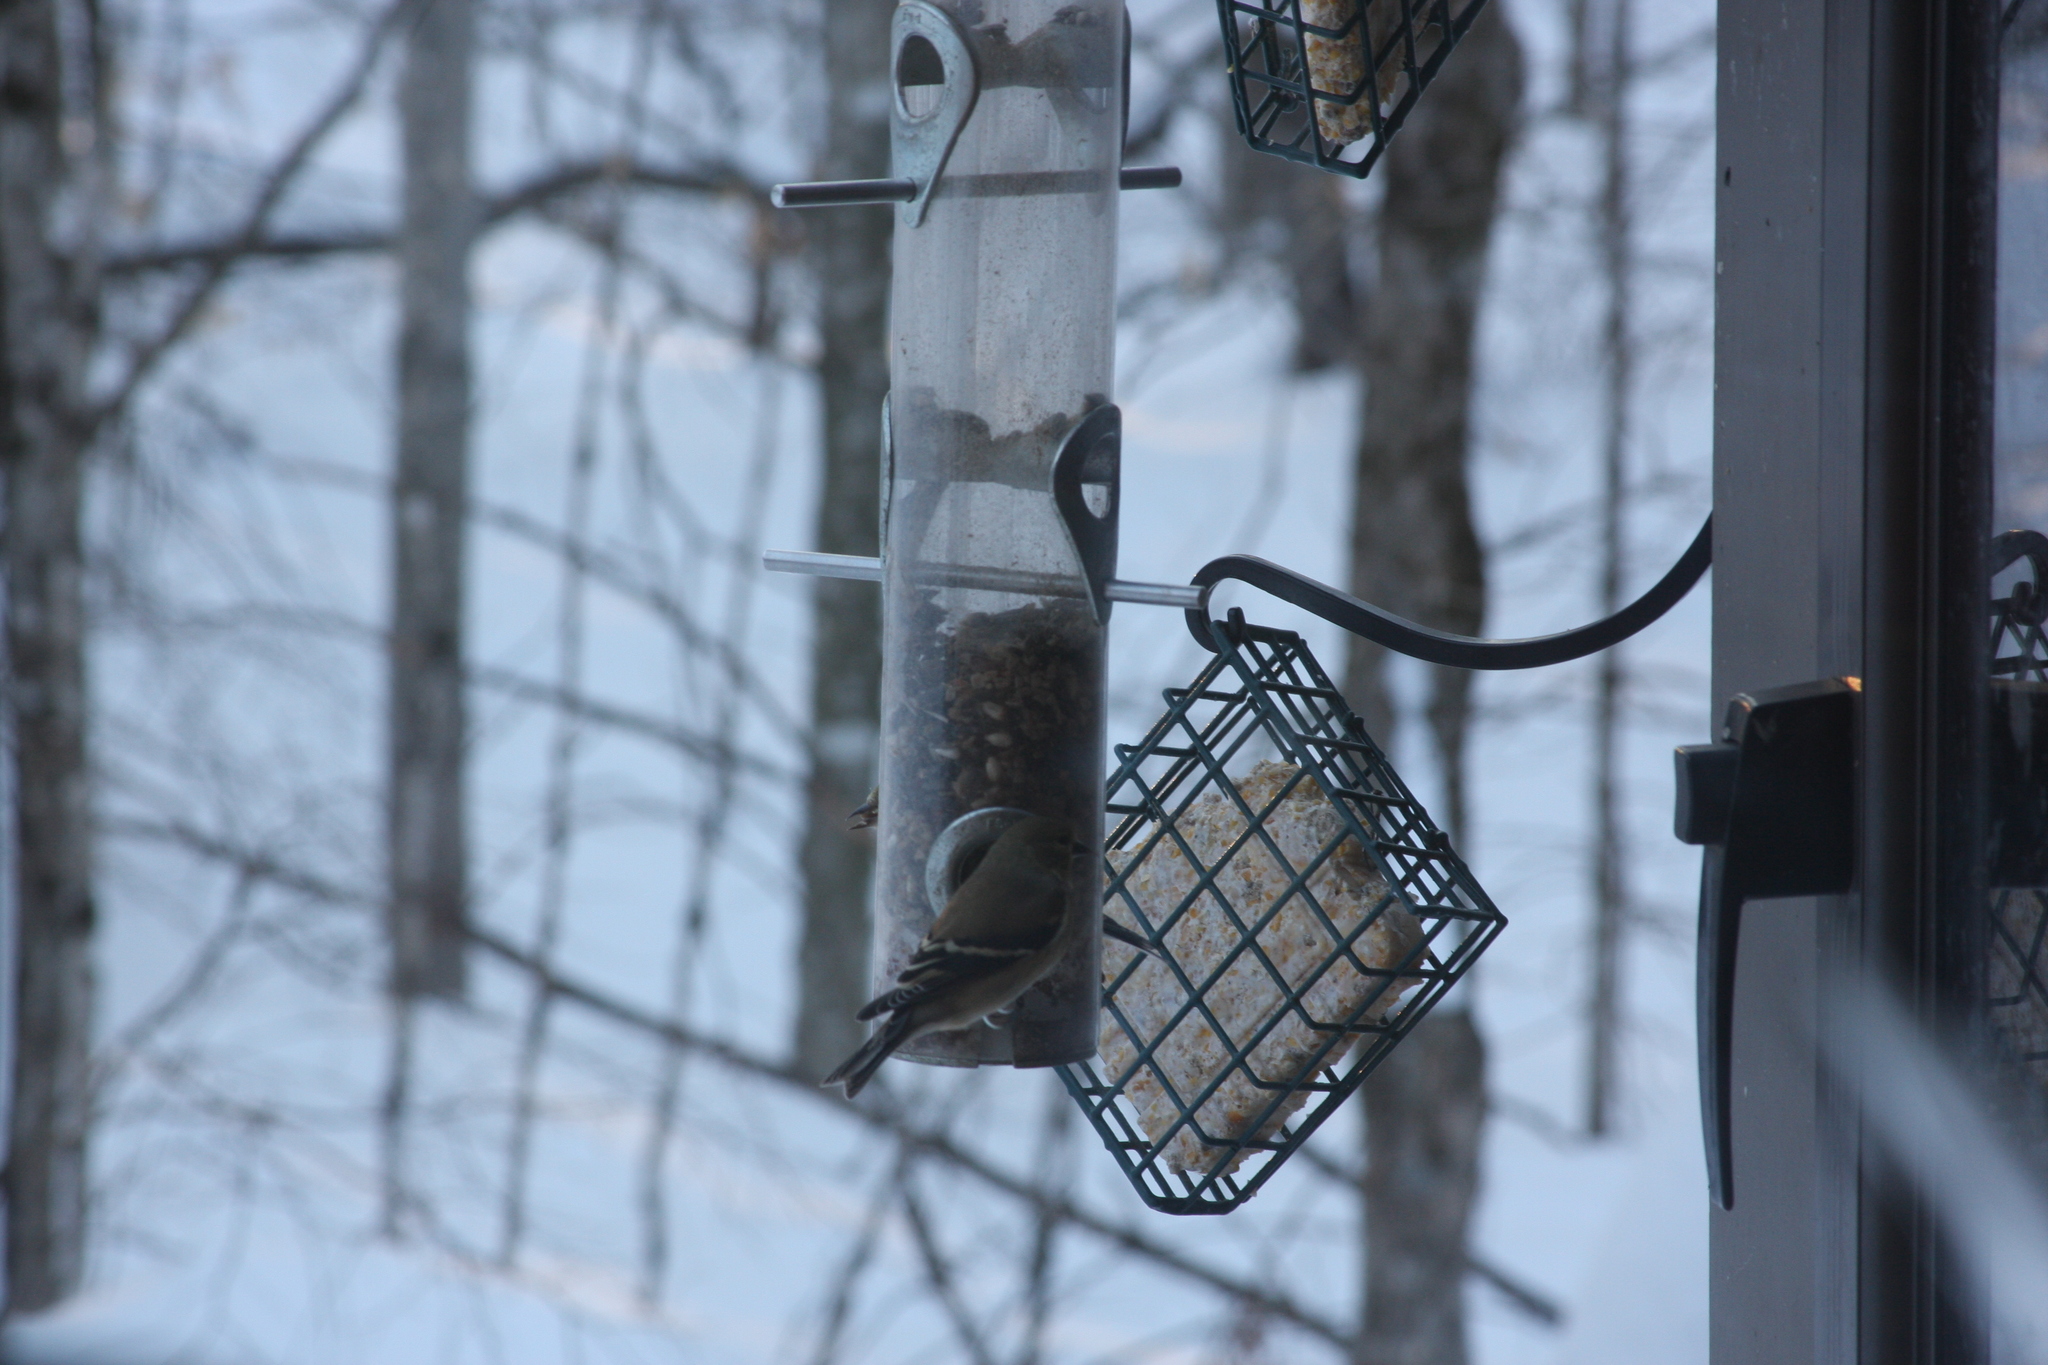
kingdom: Animalia
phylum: Chordata
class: Aves
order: Passeriformes
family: Fringillidae
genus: Spinus
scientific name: Spinus tristis
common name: American goldfinch
